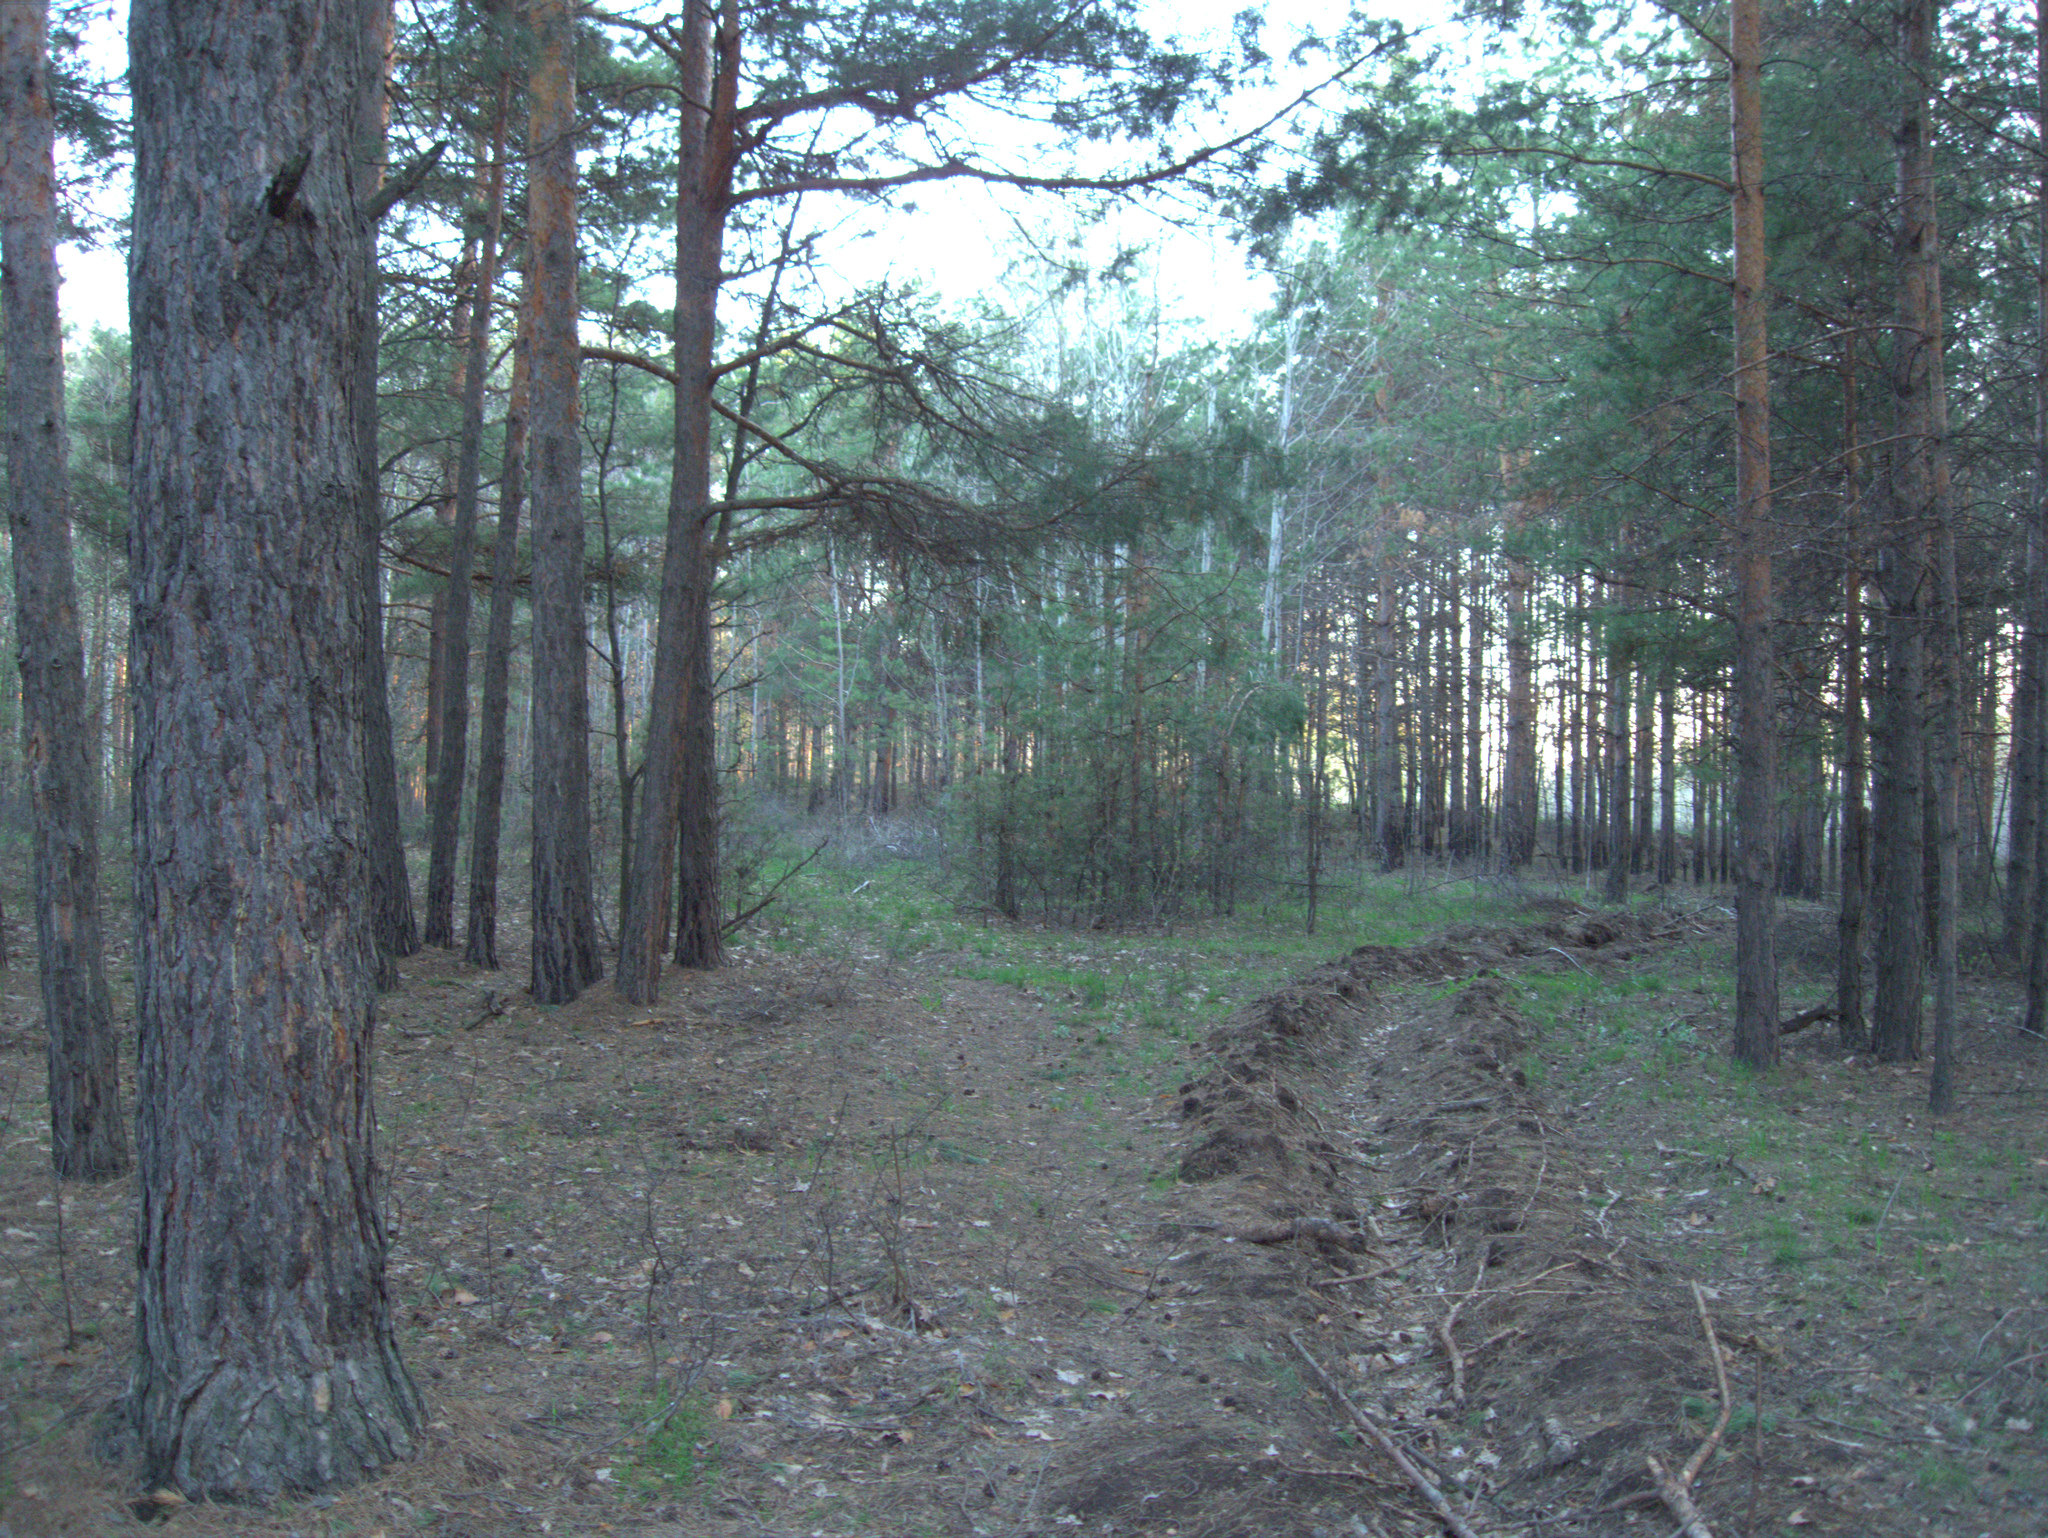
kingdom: Plantae
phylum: Tracheophyta
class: Pinopsida
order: Pinales
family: Pinaceae
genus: Pinus
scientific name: Pinus sylvestris
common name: Scots pine
